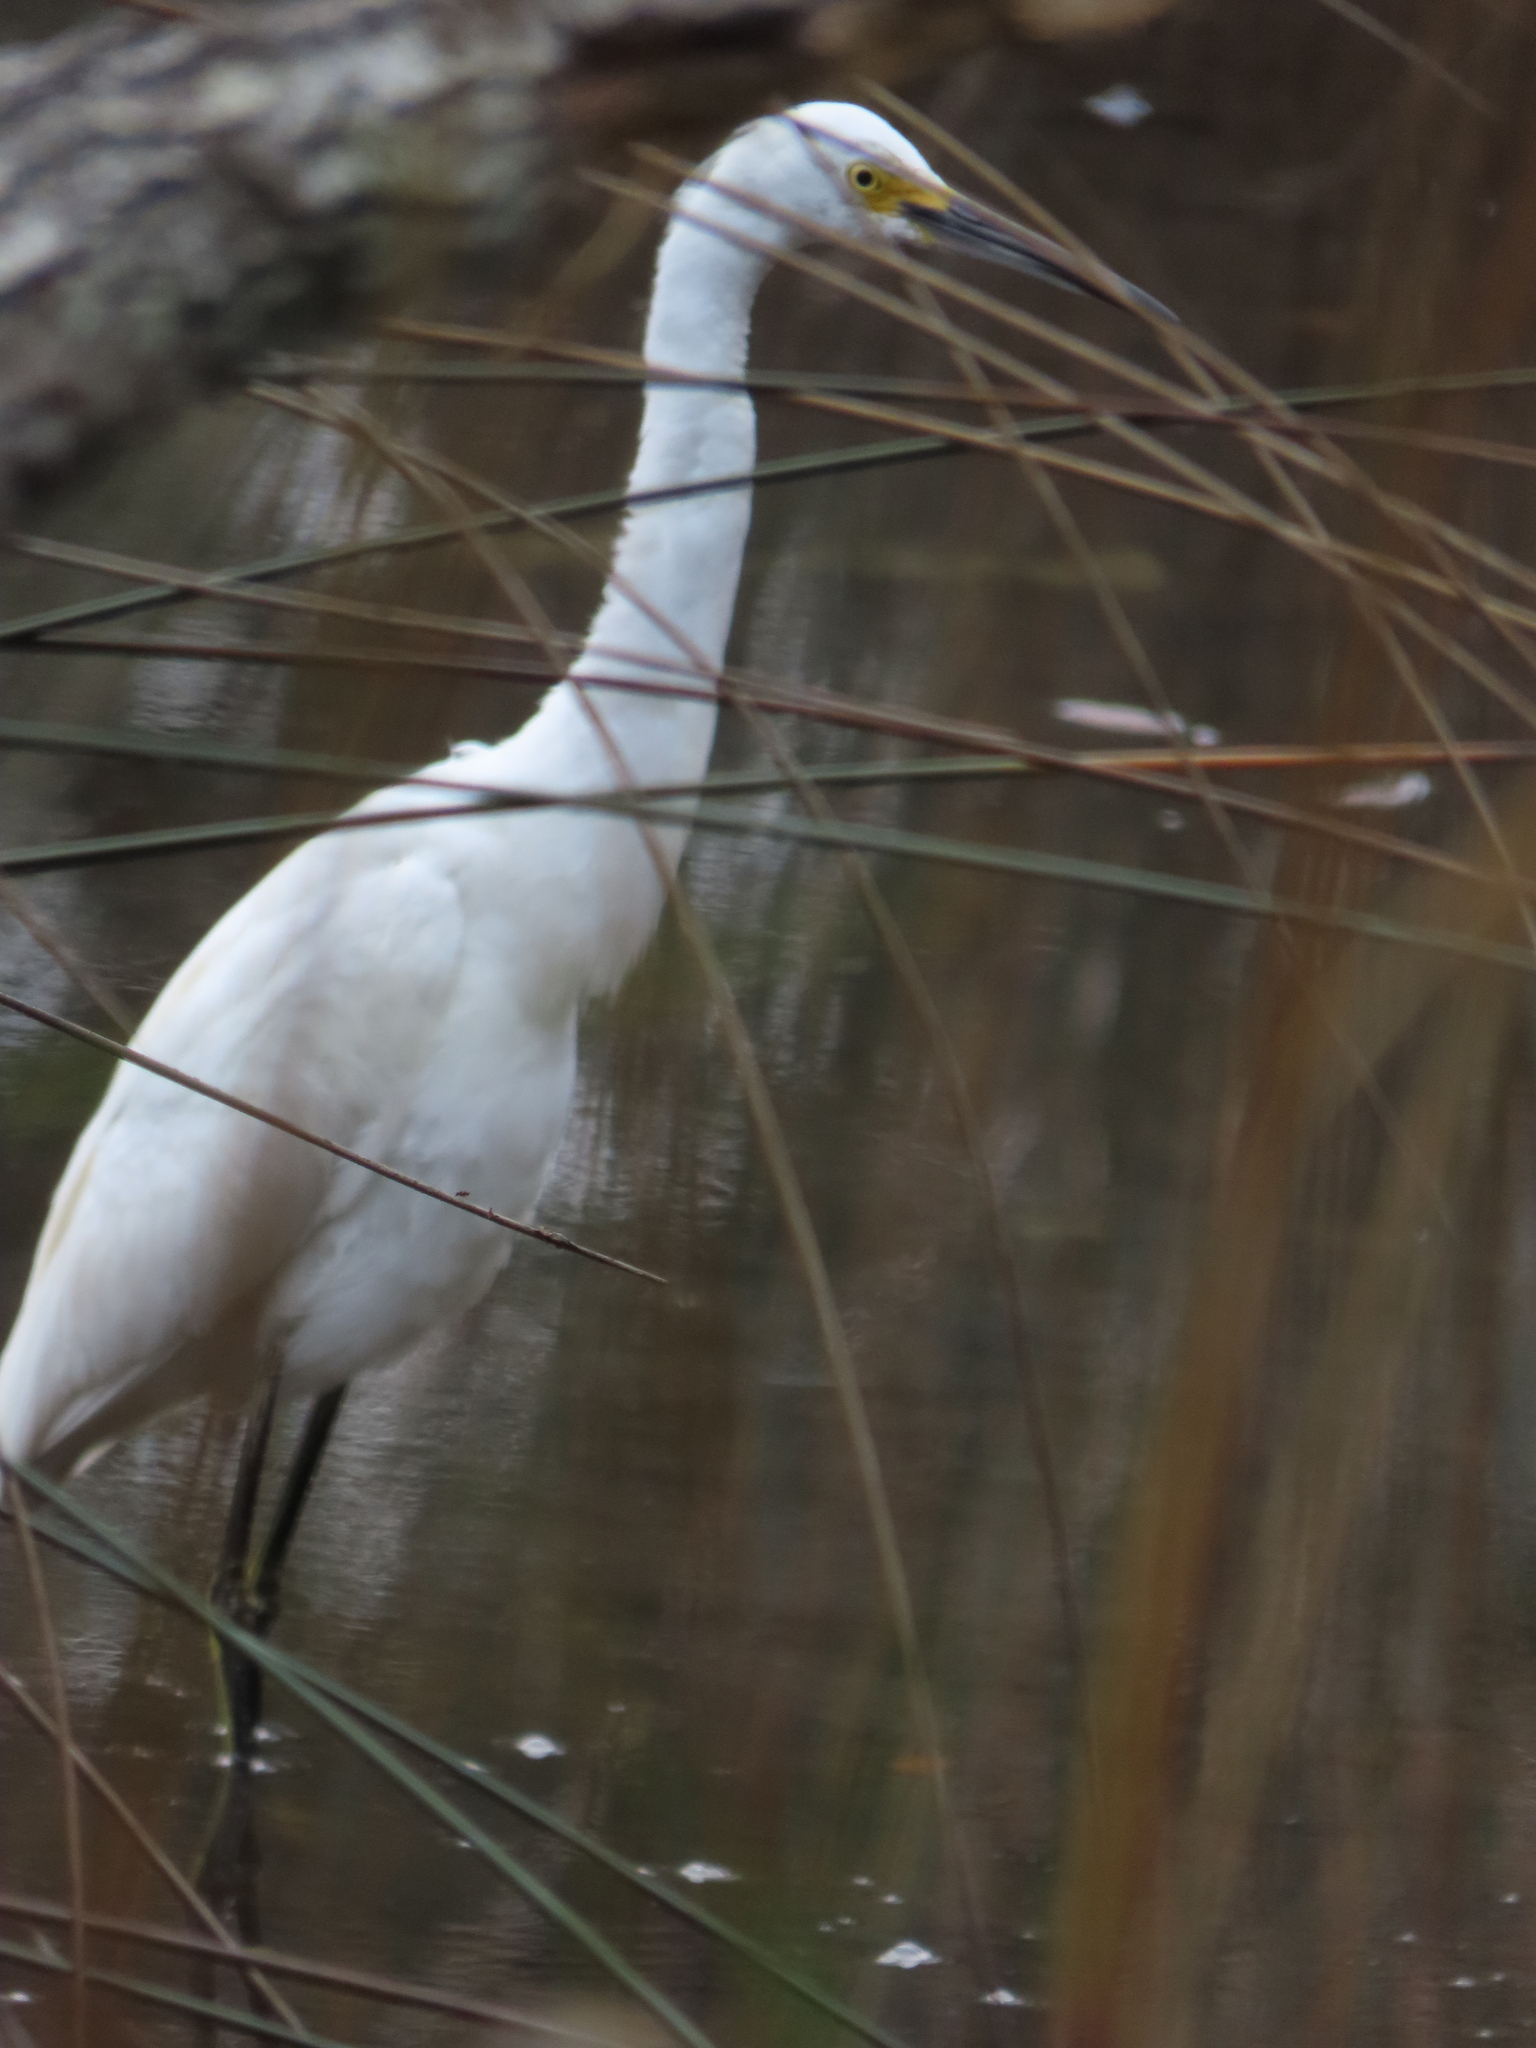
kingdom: Animalia
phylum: Chordata
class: Aves
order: Pelecaniformes
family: Ardeidae
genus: Egretta
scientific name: Egretta thula
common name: Snowy egret
